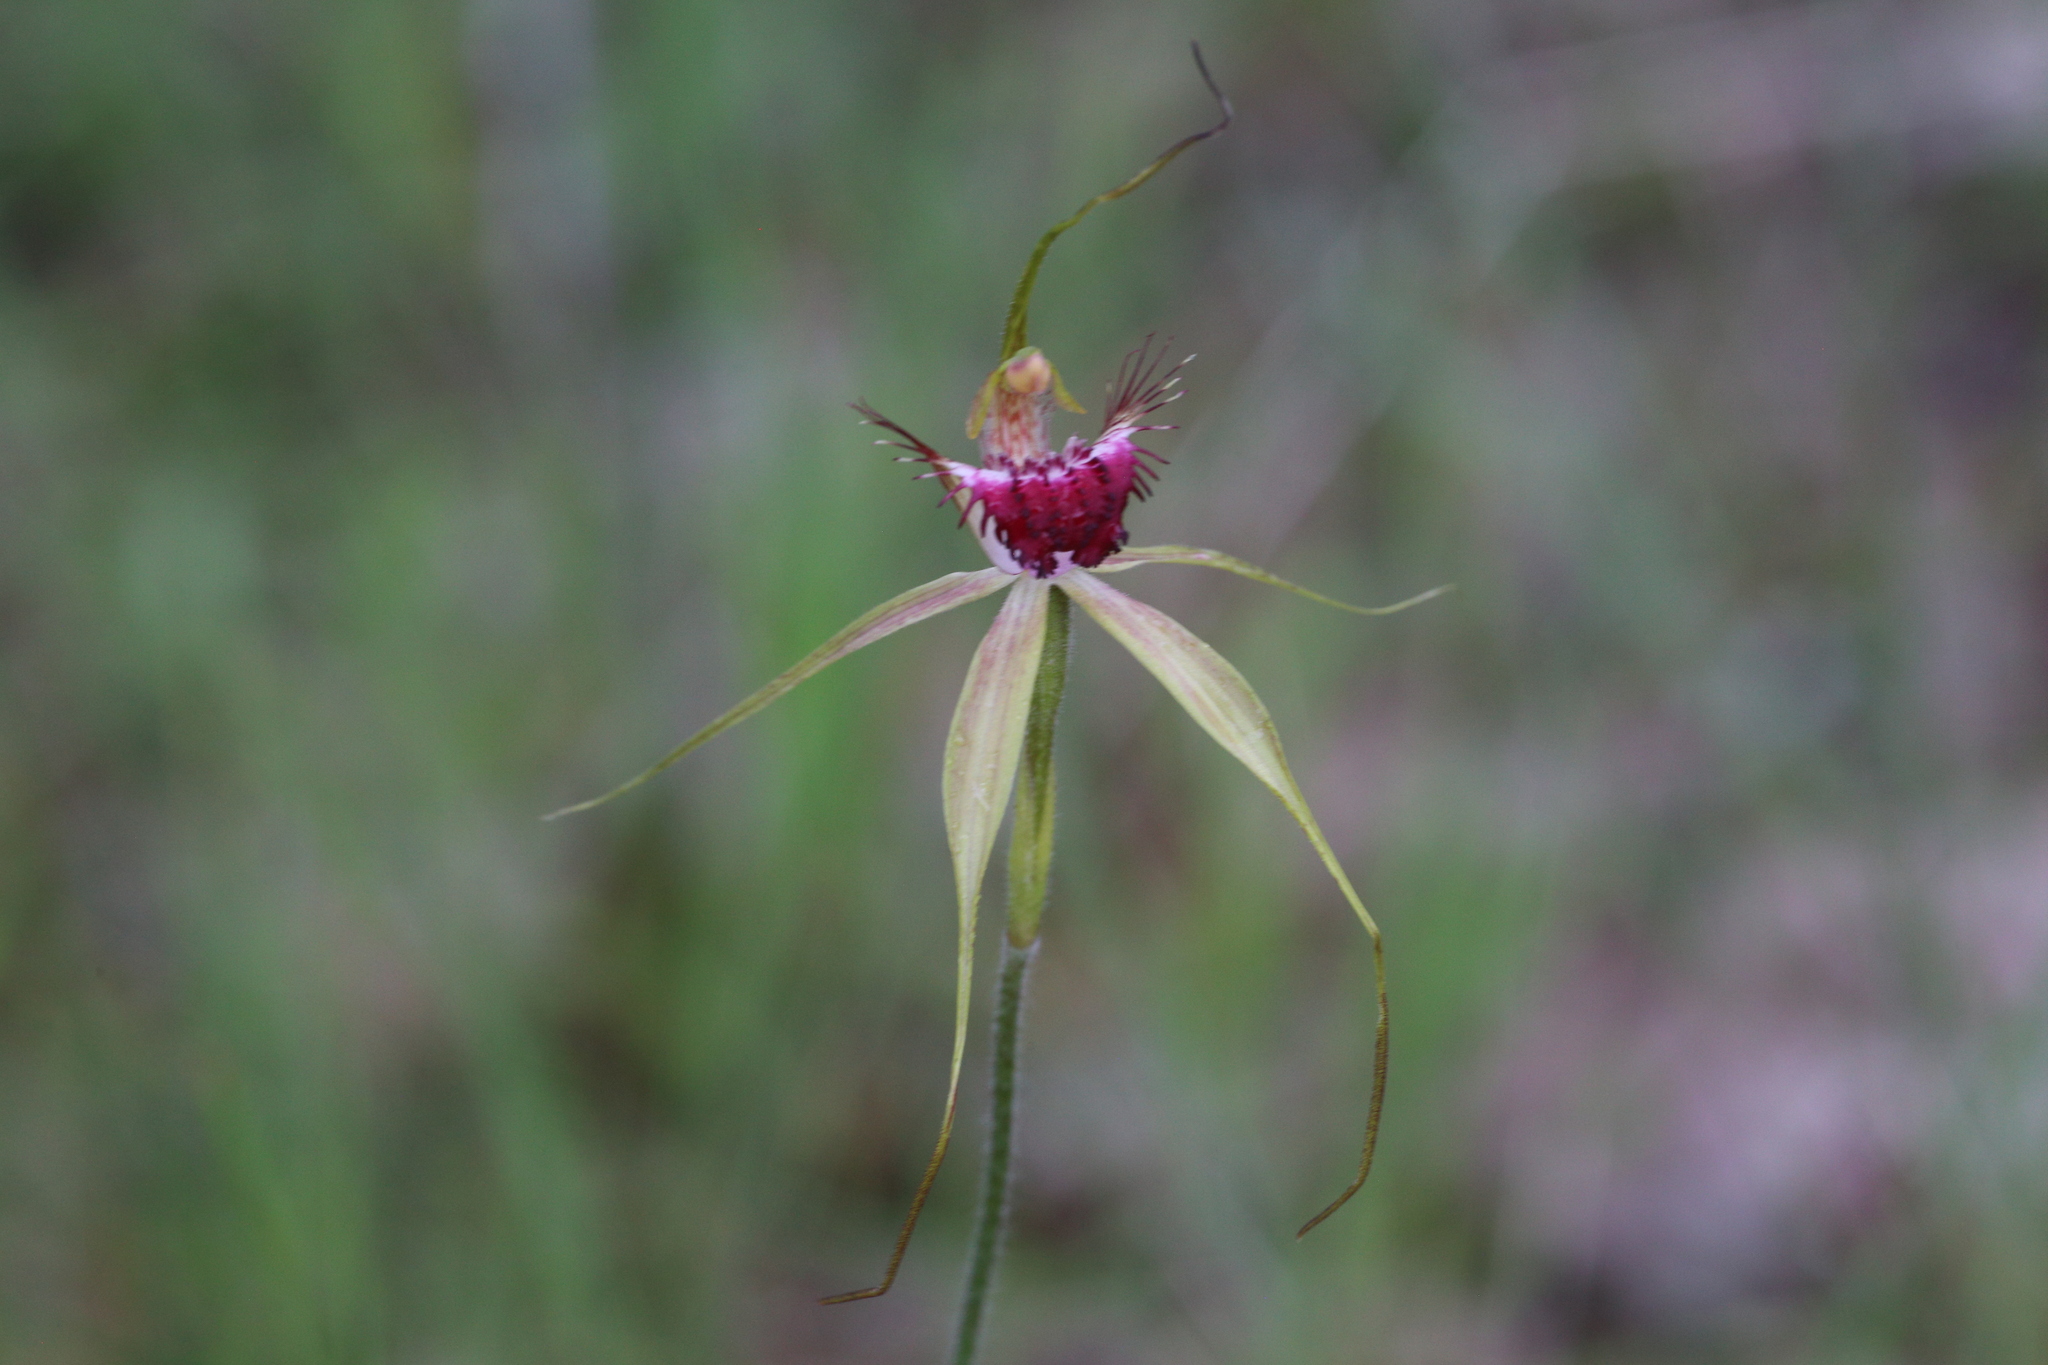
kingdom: Plantae
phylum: Tracheophyta
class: Liliopsida
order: Asparagales
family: Orchidaceae
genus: Caladenia
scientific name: Caladenia georgei
